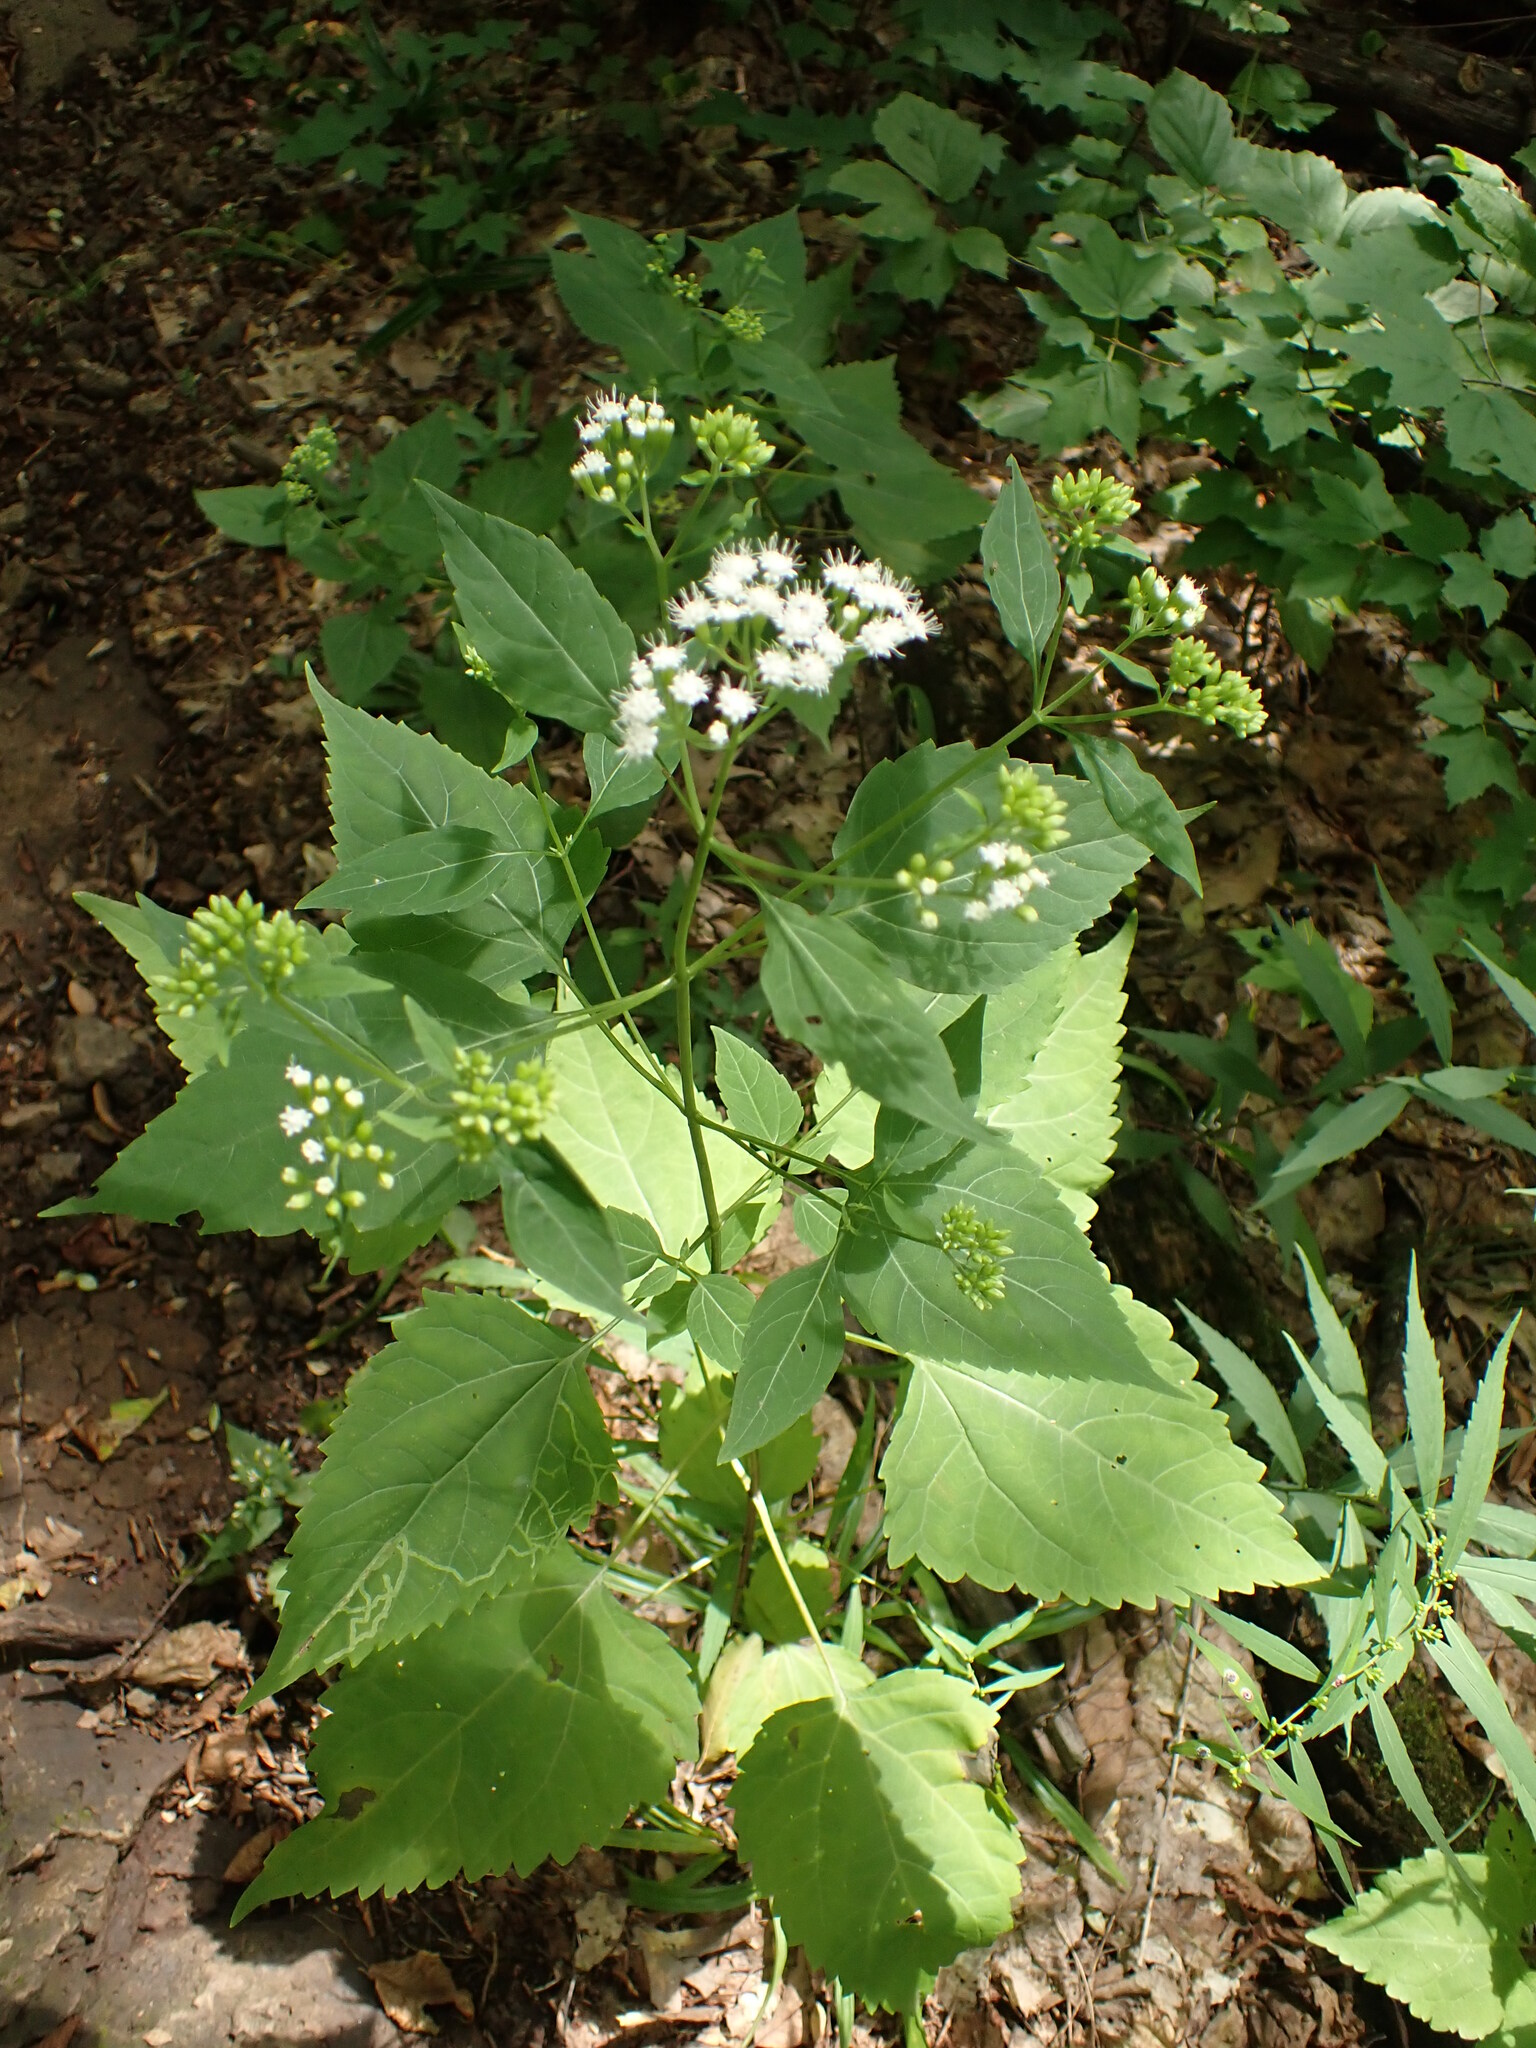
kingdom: Plantae
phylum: Tracheophyta
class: Magnoliopsida
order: Asterales
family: Asteraceae
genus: Ageratina
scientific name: Ageratina altissima
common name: White snakeroot
